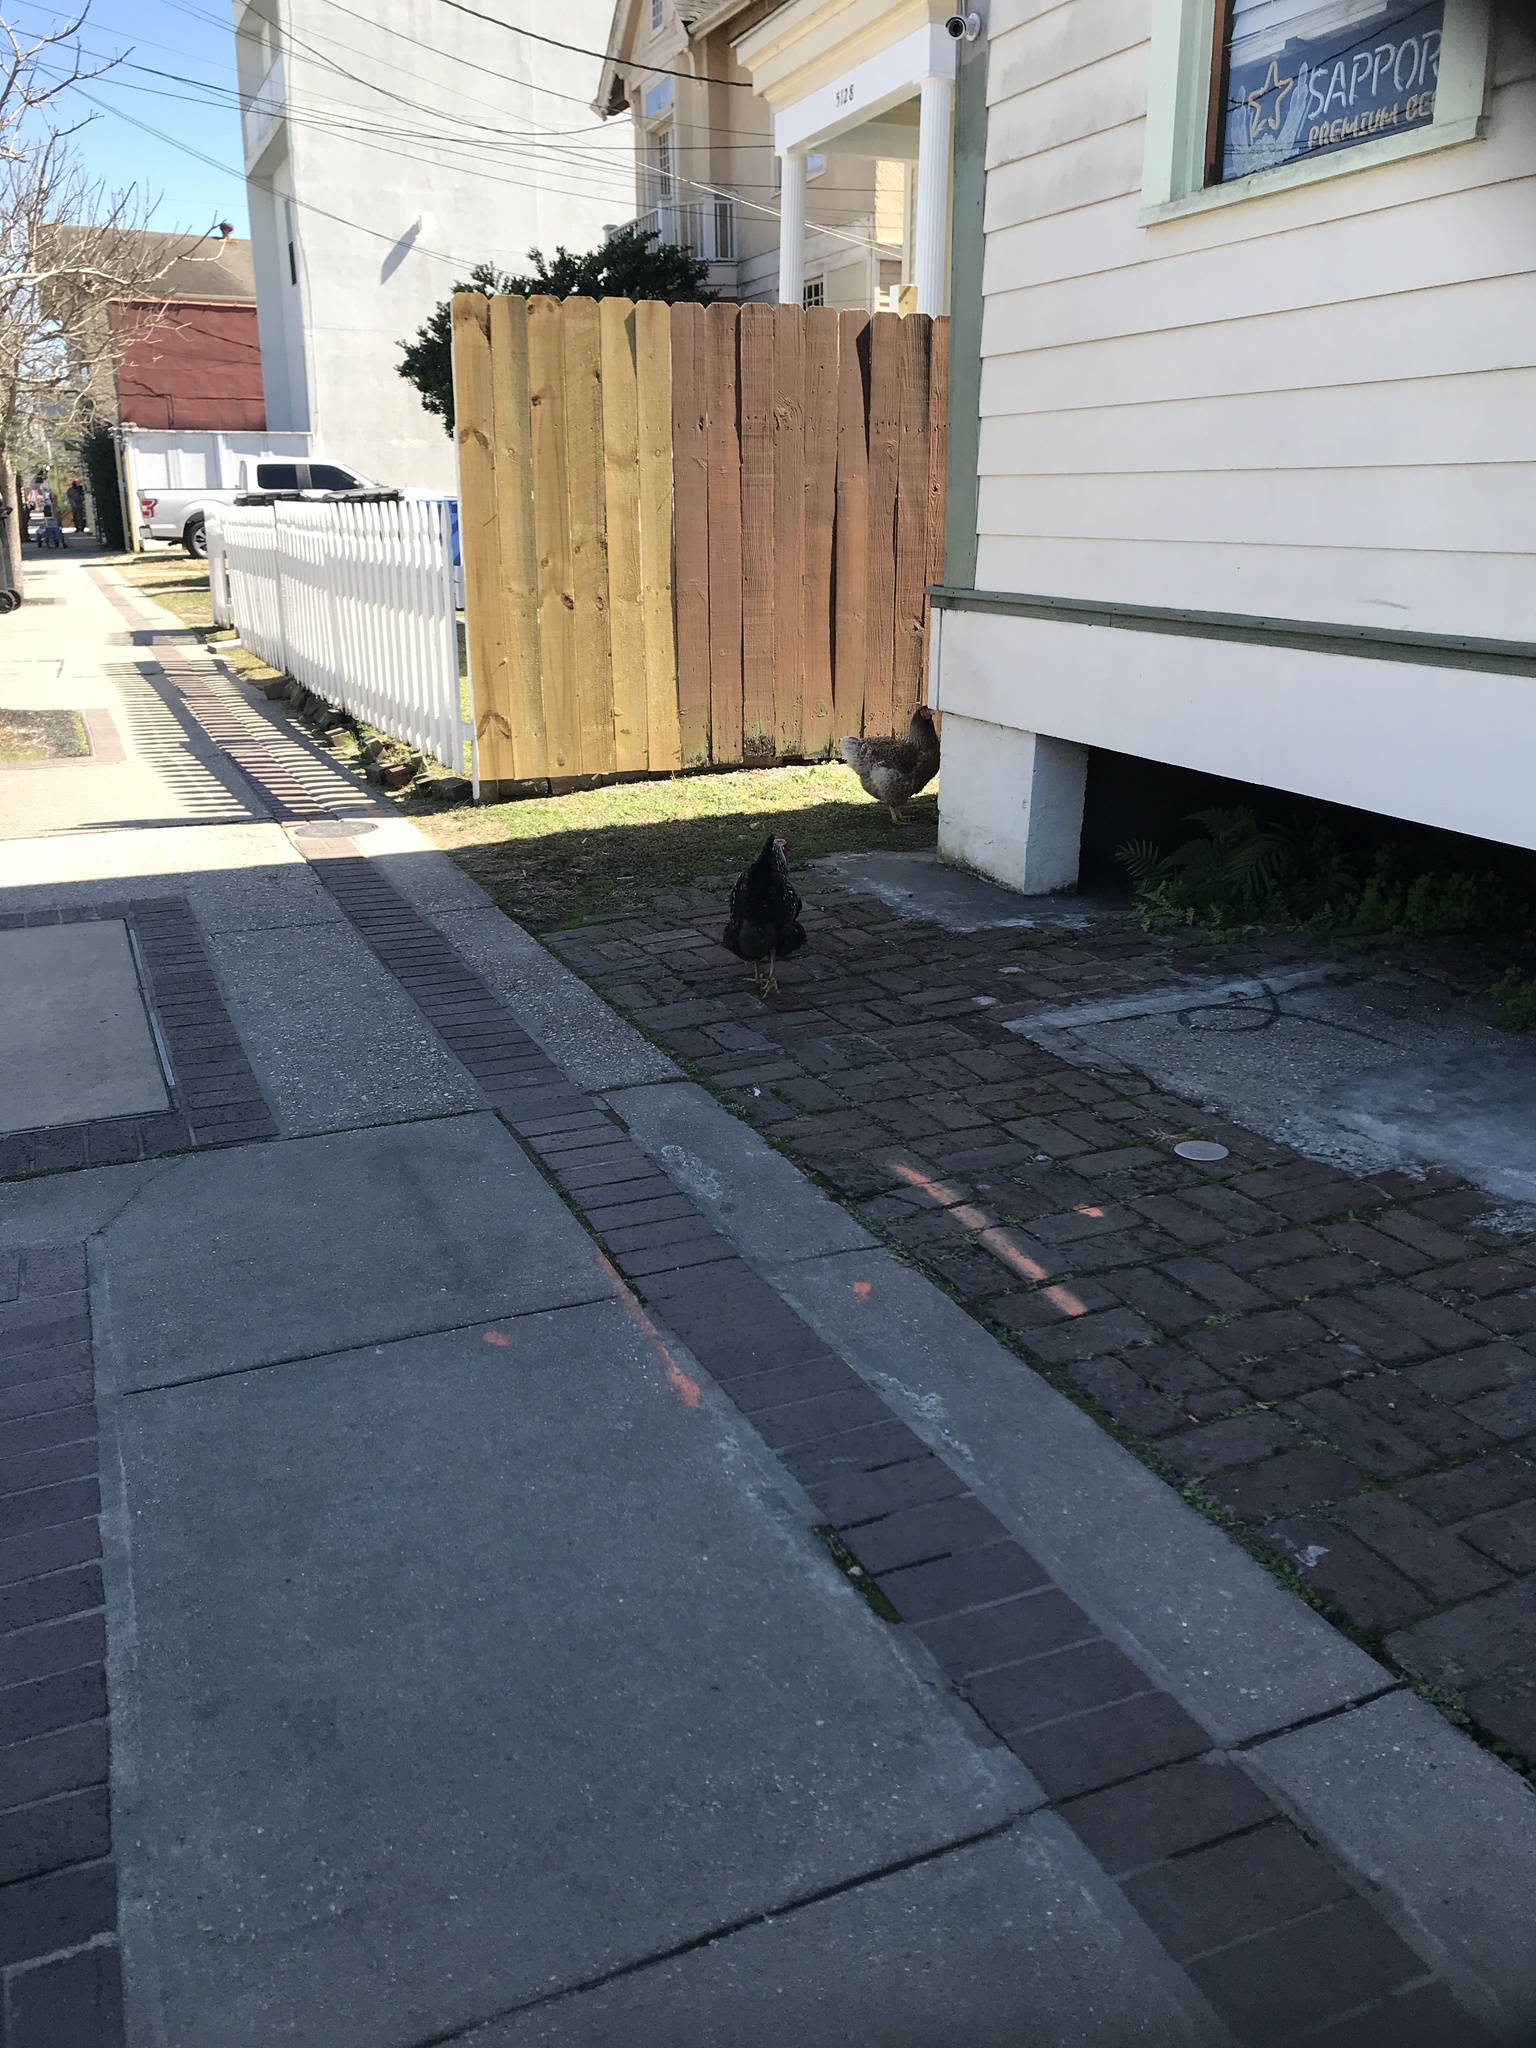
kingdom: Animalia
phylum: Chordata
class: Aves
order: Galliformes
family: Phasianidae
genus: Gallus
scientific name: Gallus gallus
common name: Red junglefowl
